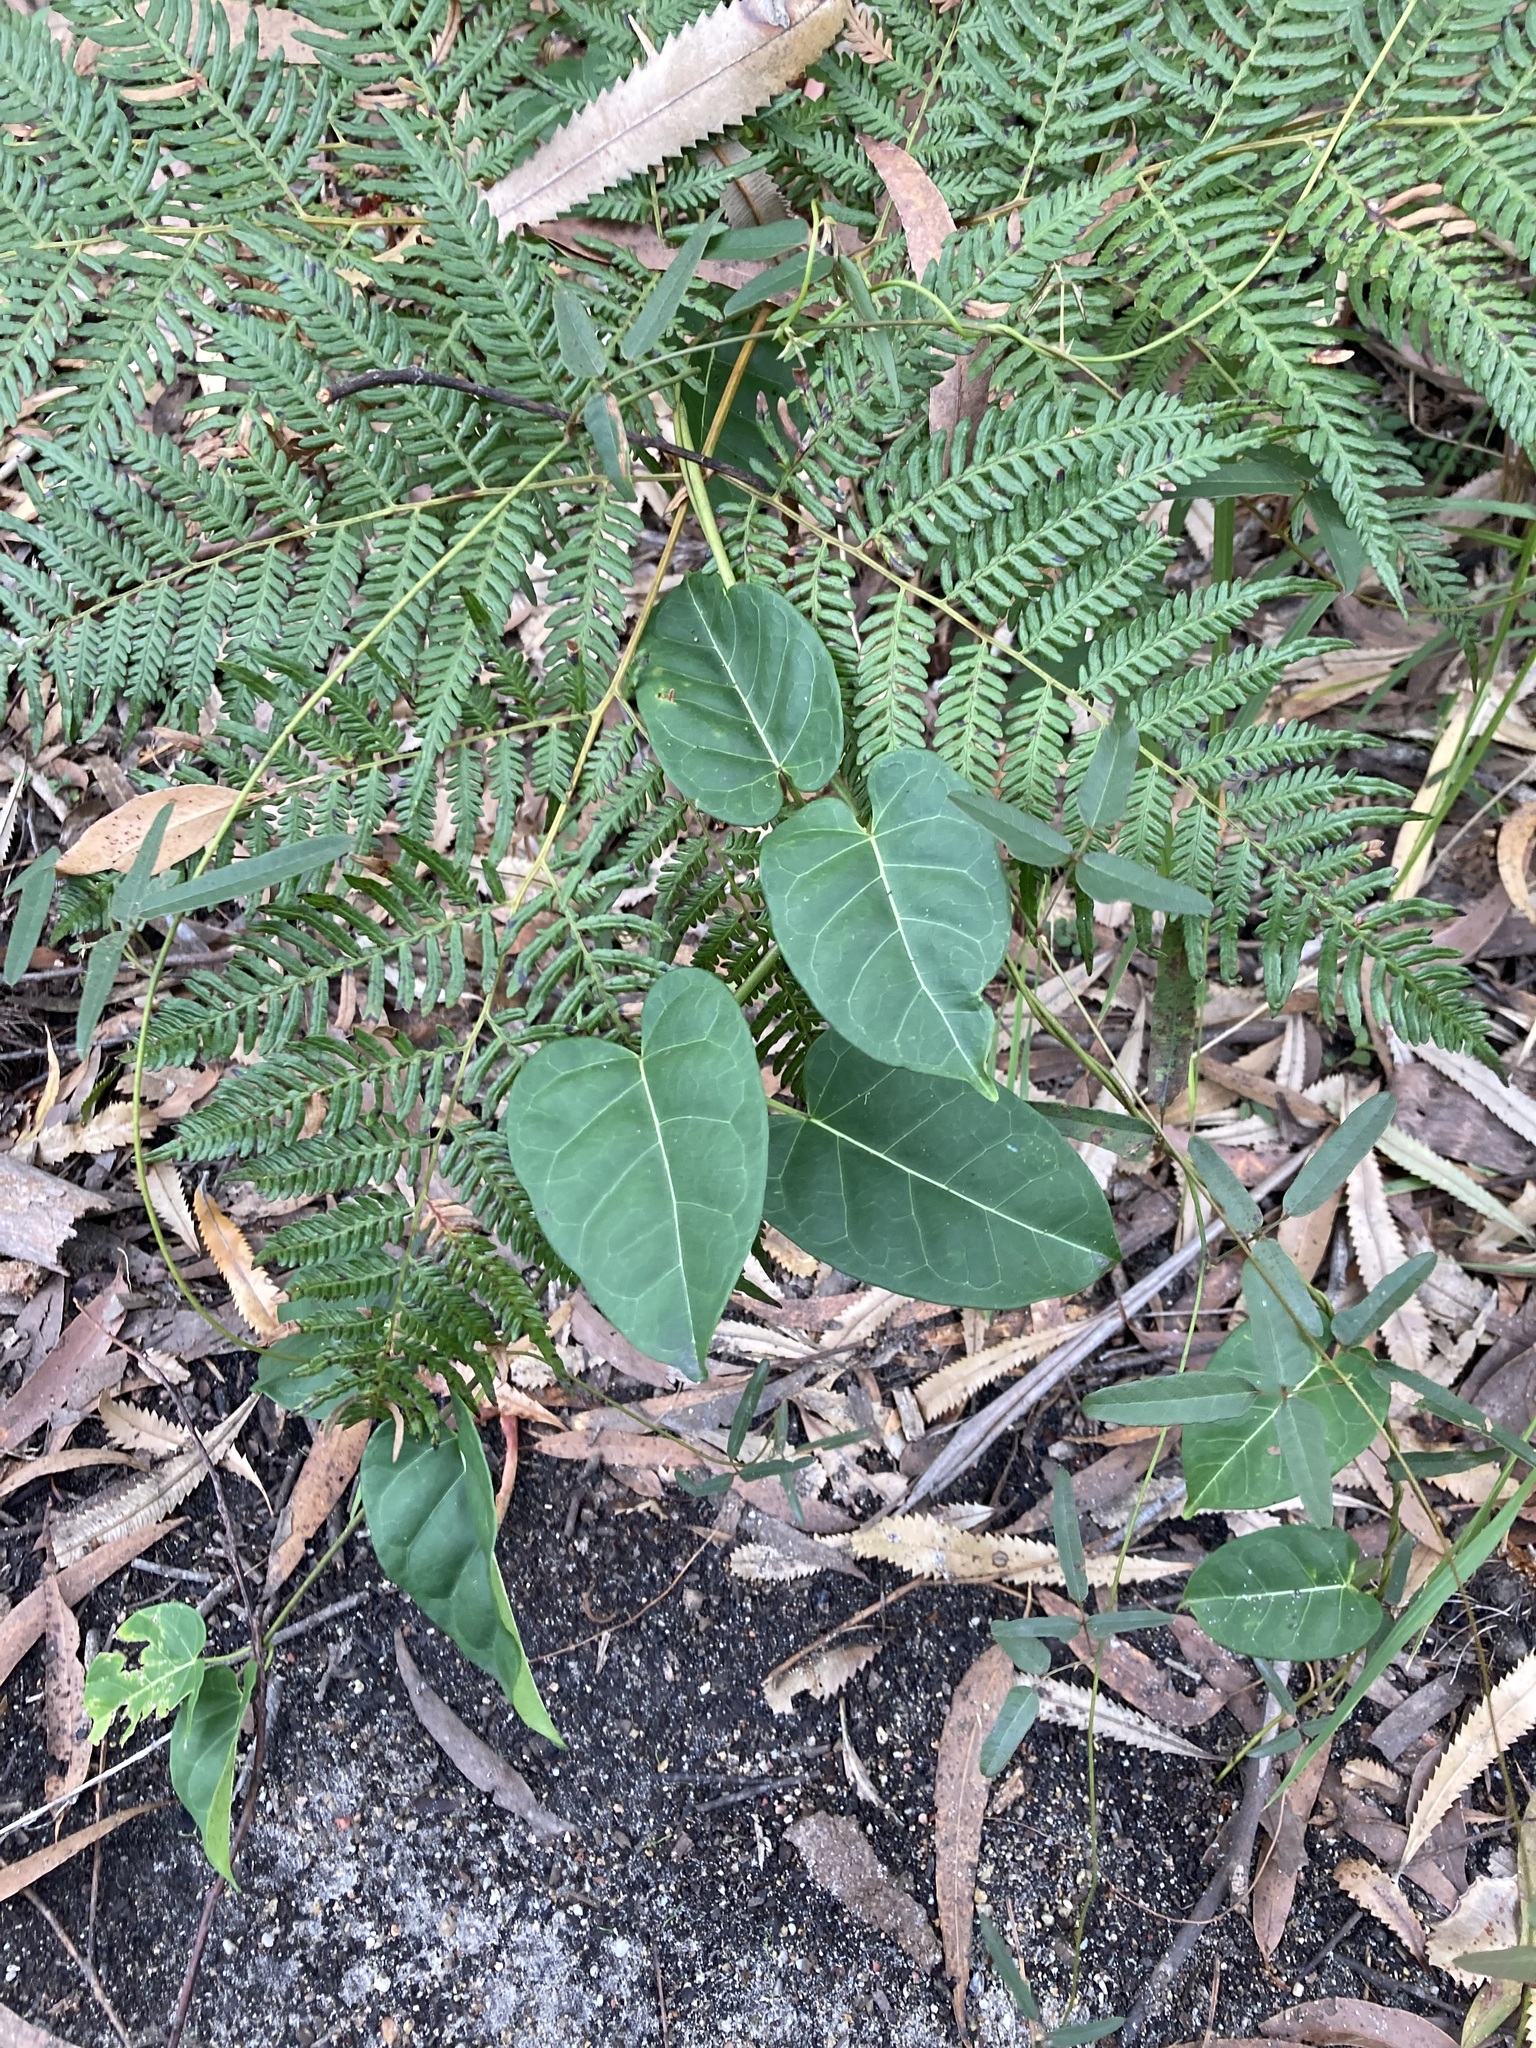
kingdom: Plantae
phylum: Tracheophyta
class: Magnoliopsida
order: Gentianales
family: Apocynaceae
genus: Leichhardtia
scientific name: Leichhardtia rostrata
